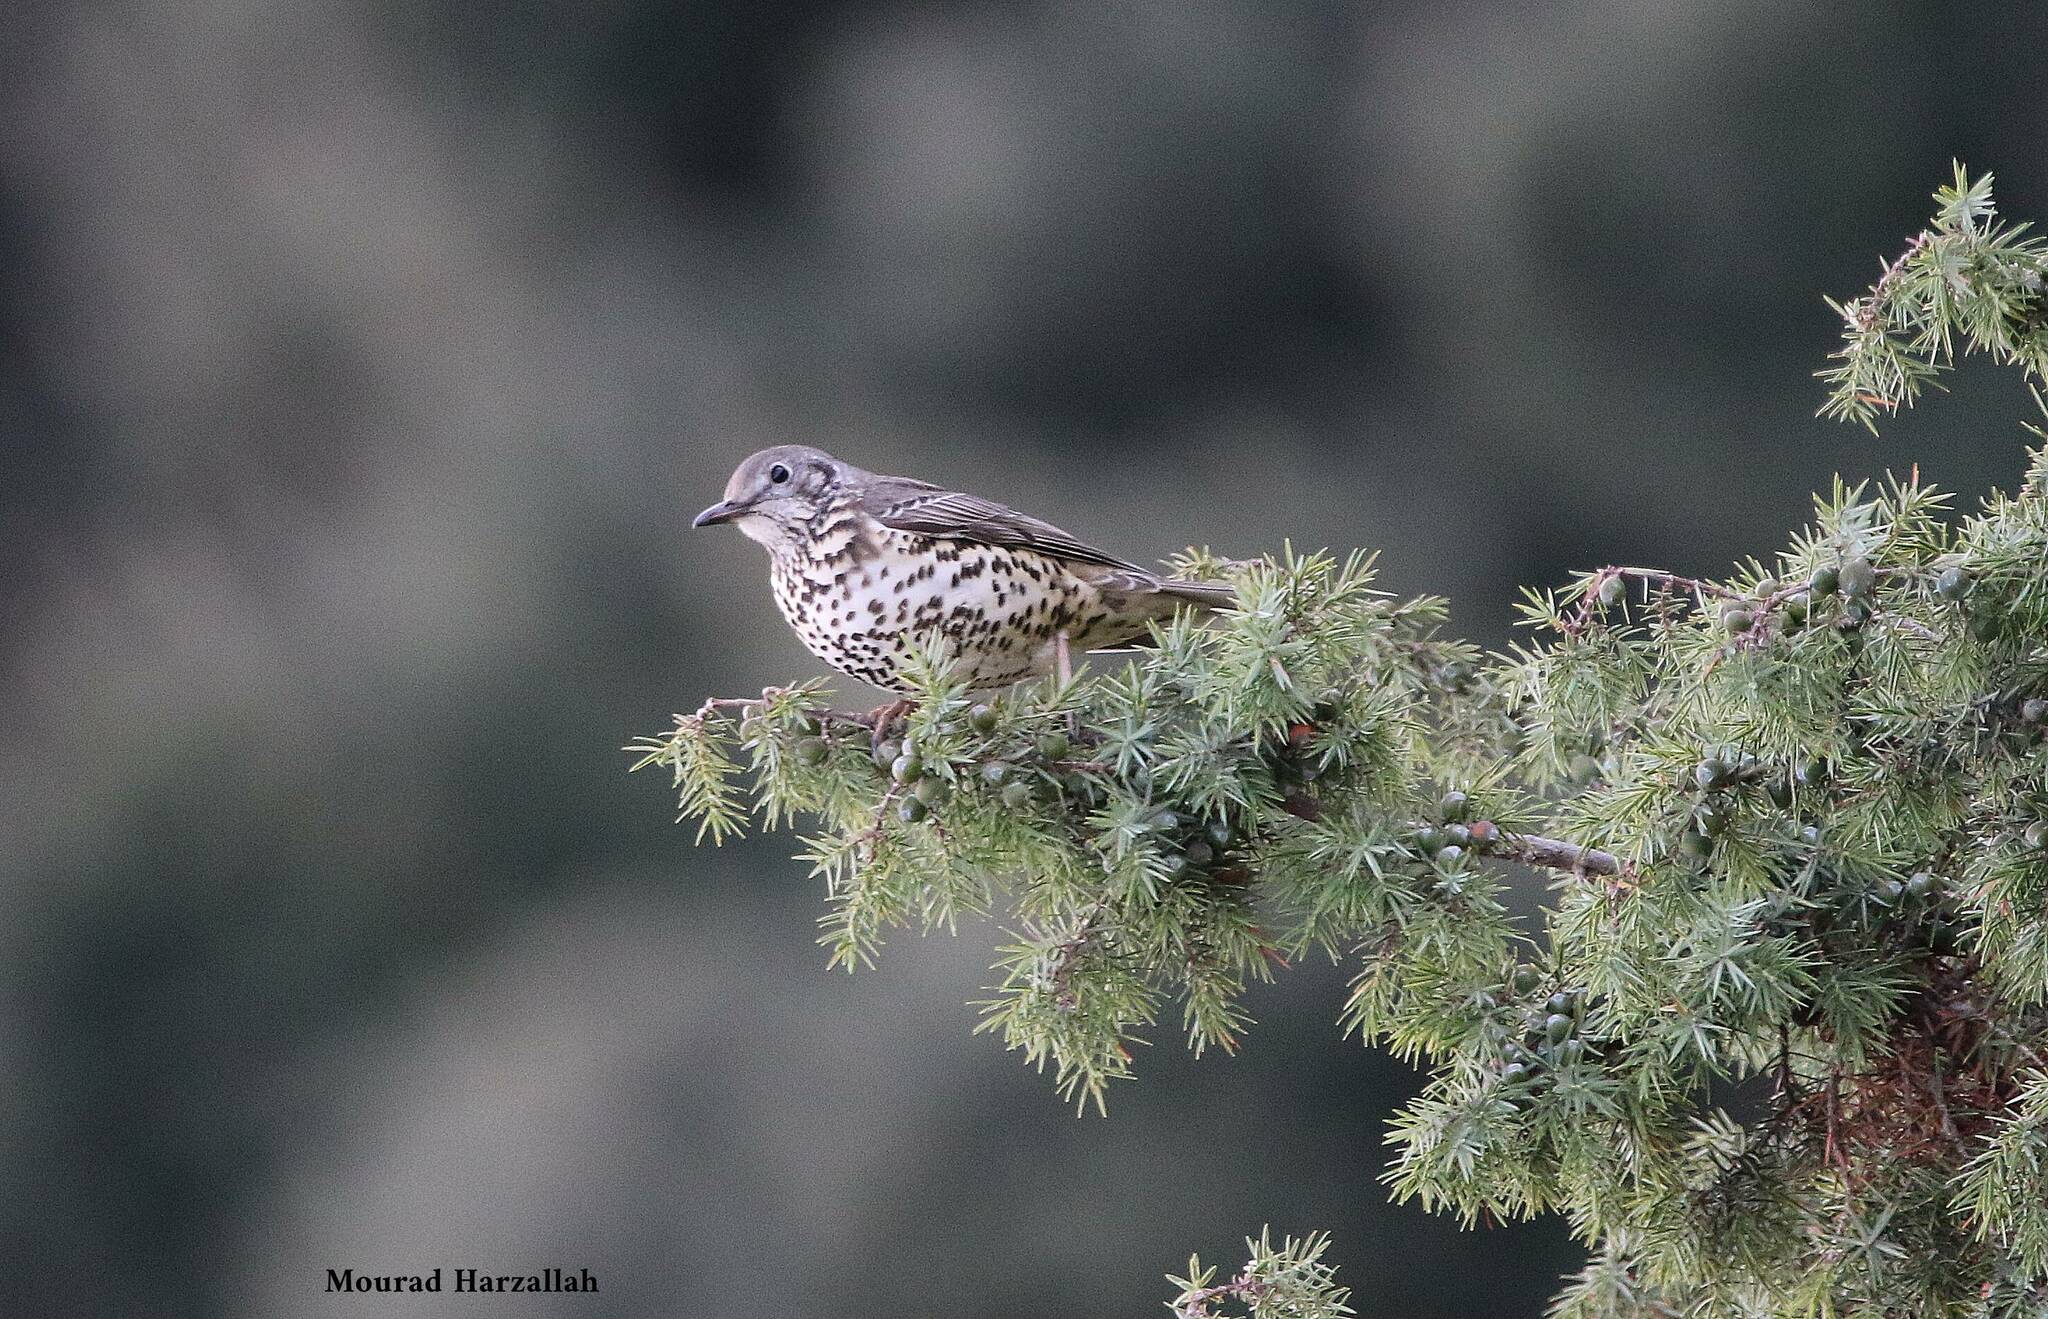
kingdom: Animalia
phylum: Chordata
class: Aves
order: Passeriformes
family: Turdidae
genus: Turdus
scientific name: Turdus viscivorus
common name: Mistle thrush
